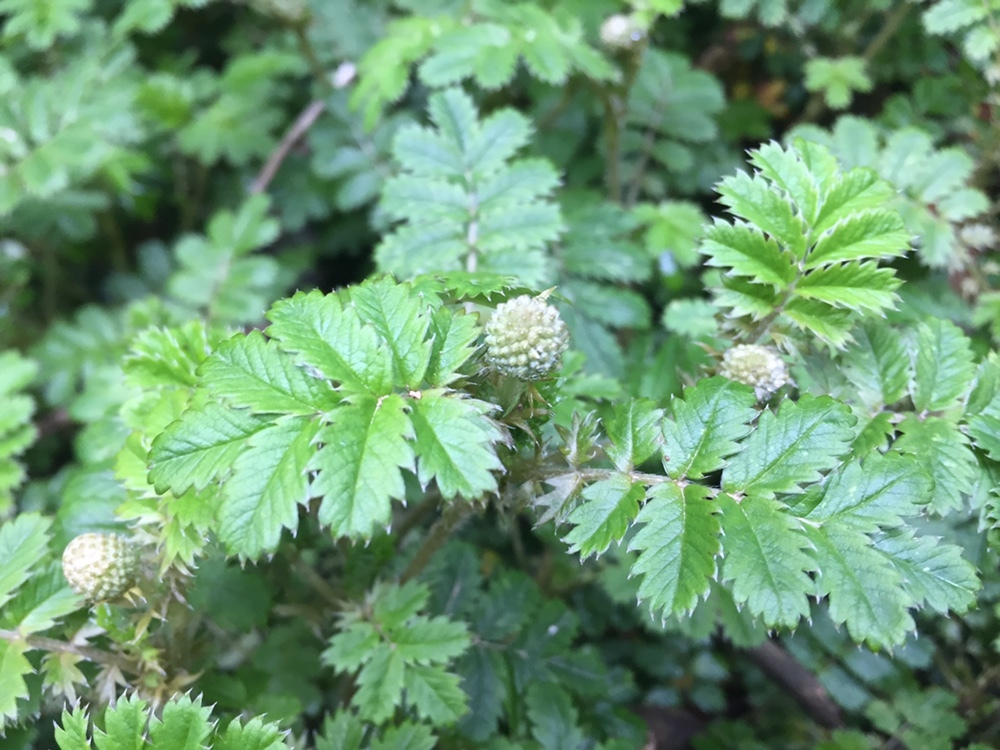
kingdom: Plantae
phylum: Tracheophyta
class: Magnoliopsida
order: Rosales
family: Rosaceae
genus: Acaena
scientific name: Acaena anserinifolia
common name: Bronze pirri-pirri-bur
